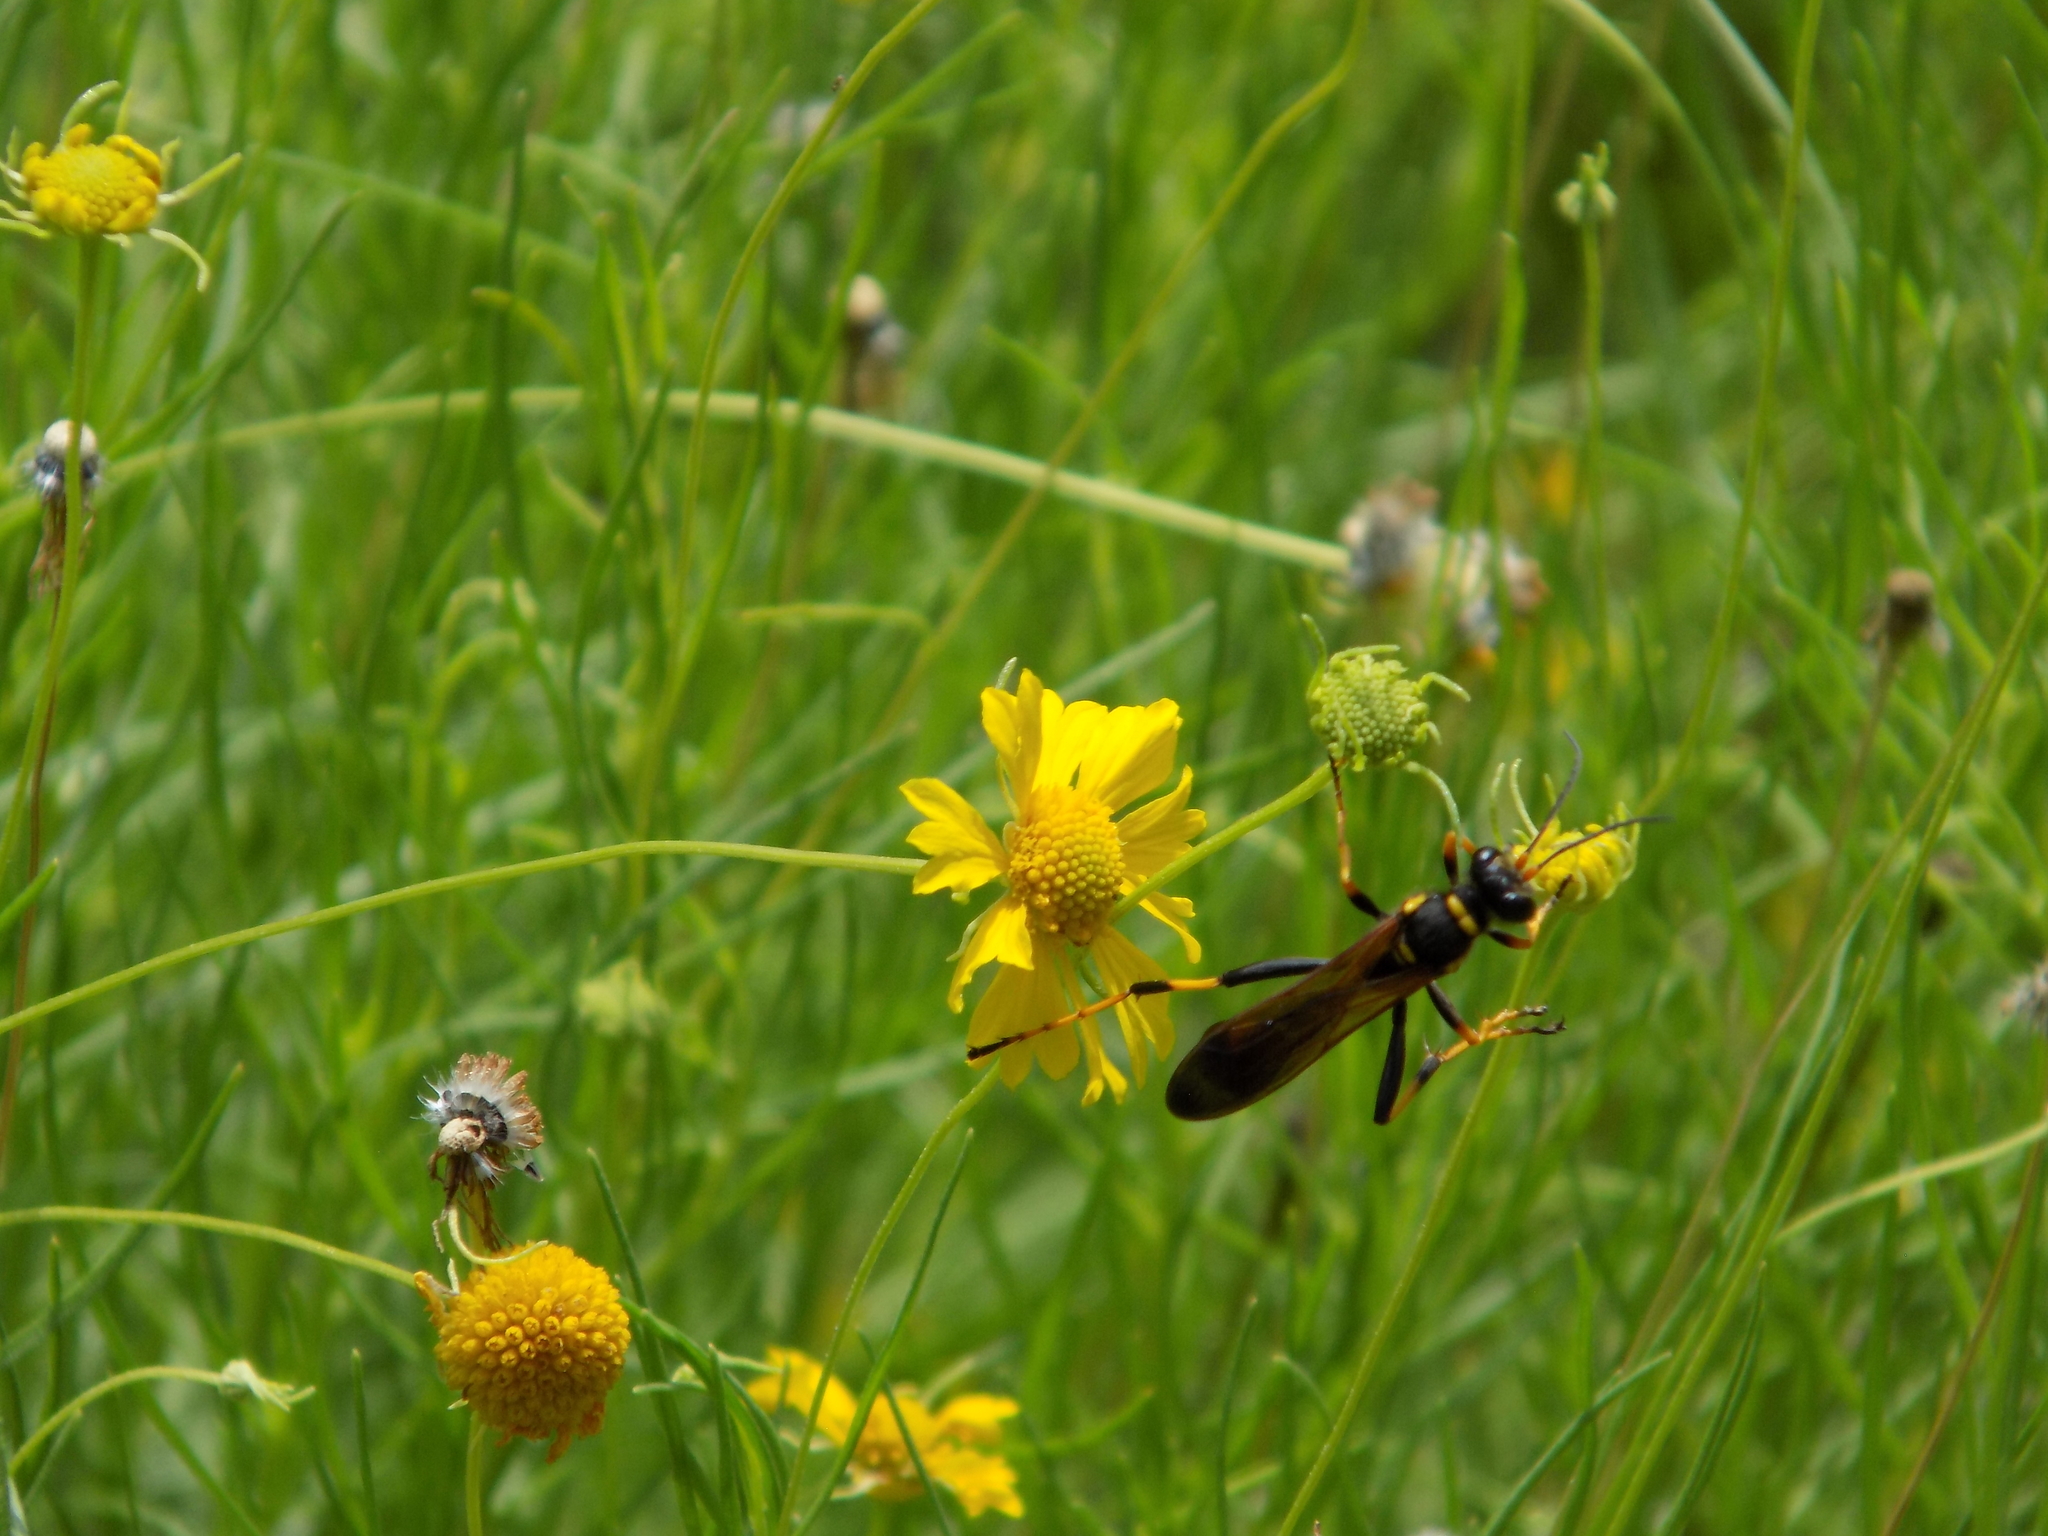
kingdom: Animalia
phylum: Arthropoda
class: Insecta
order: Hymenoptera
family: Sphecidae
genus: Sceliphron
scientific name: Sceliphron caementarium
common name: Mud dauber
